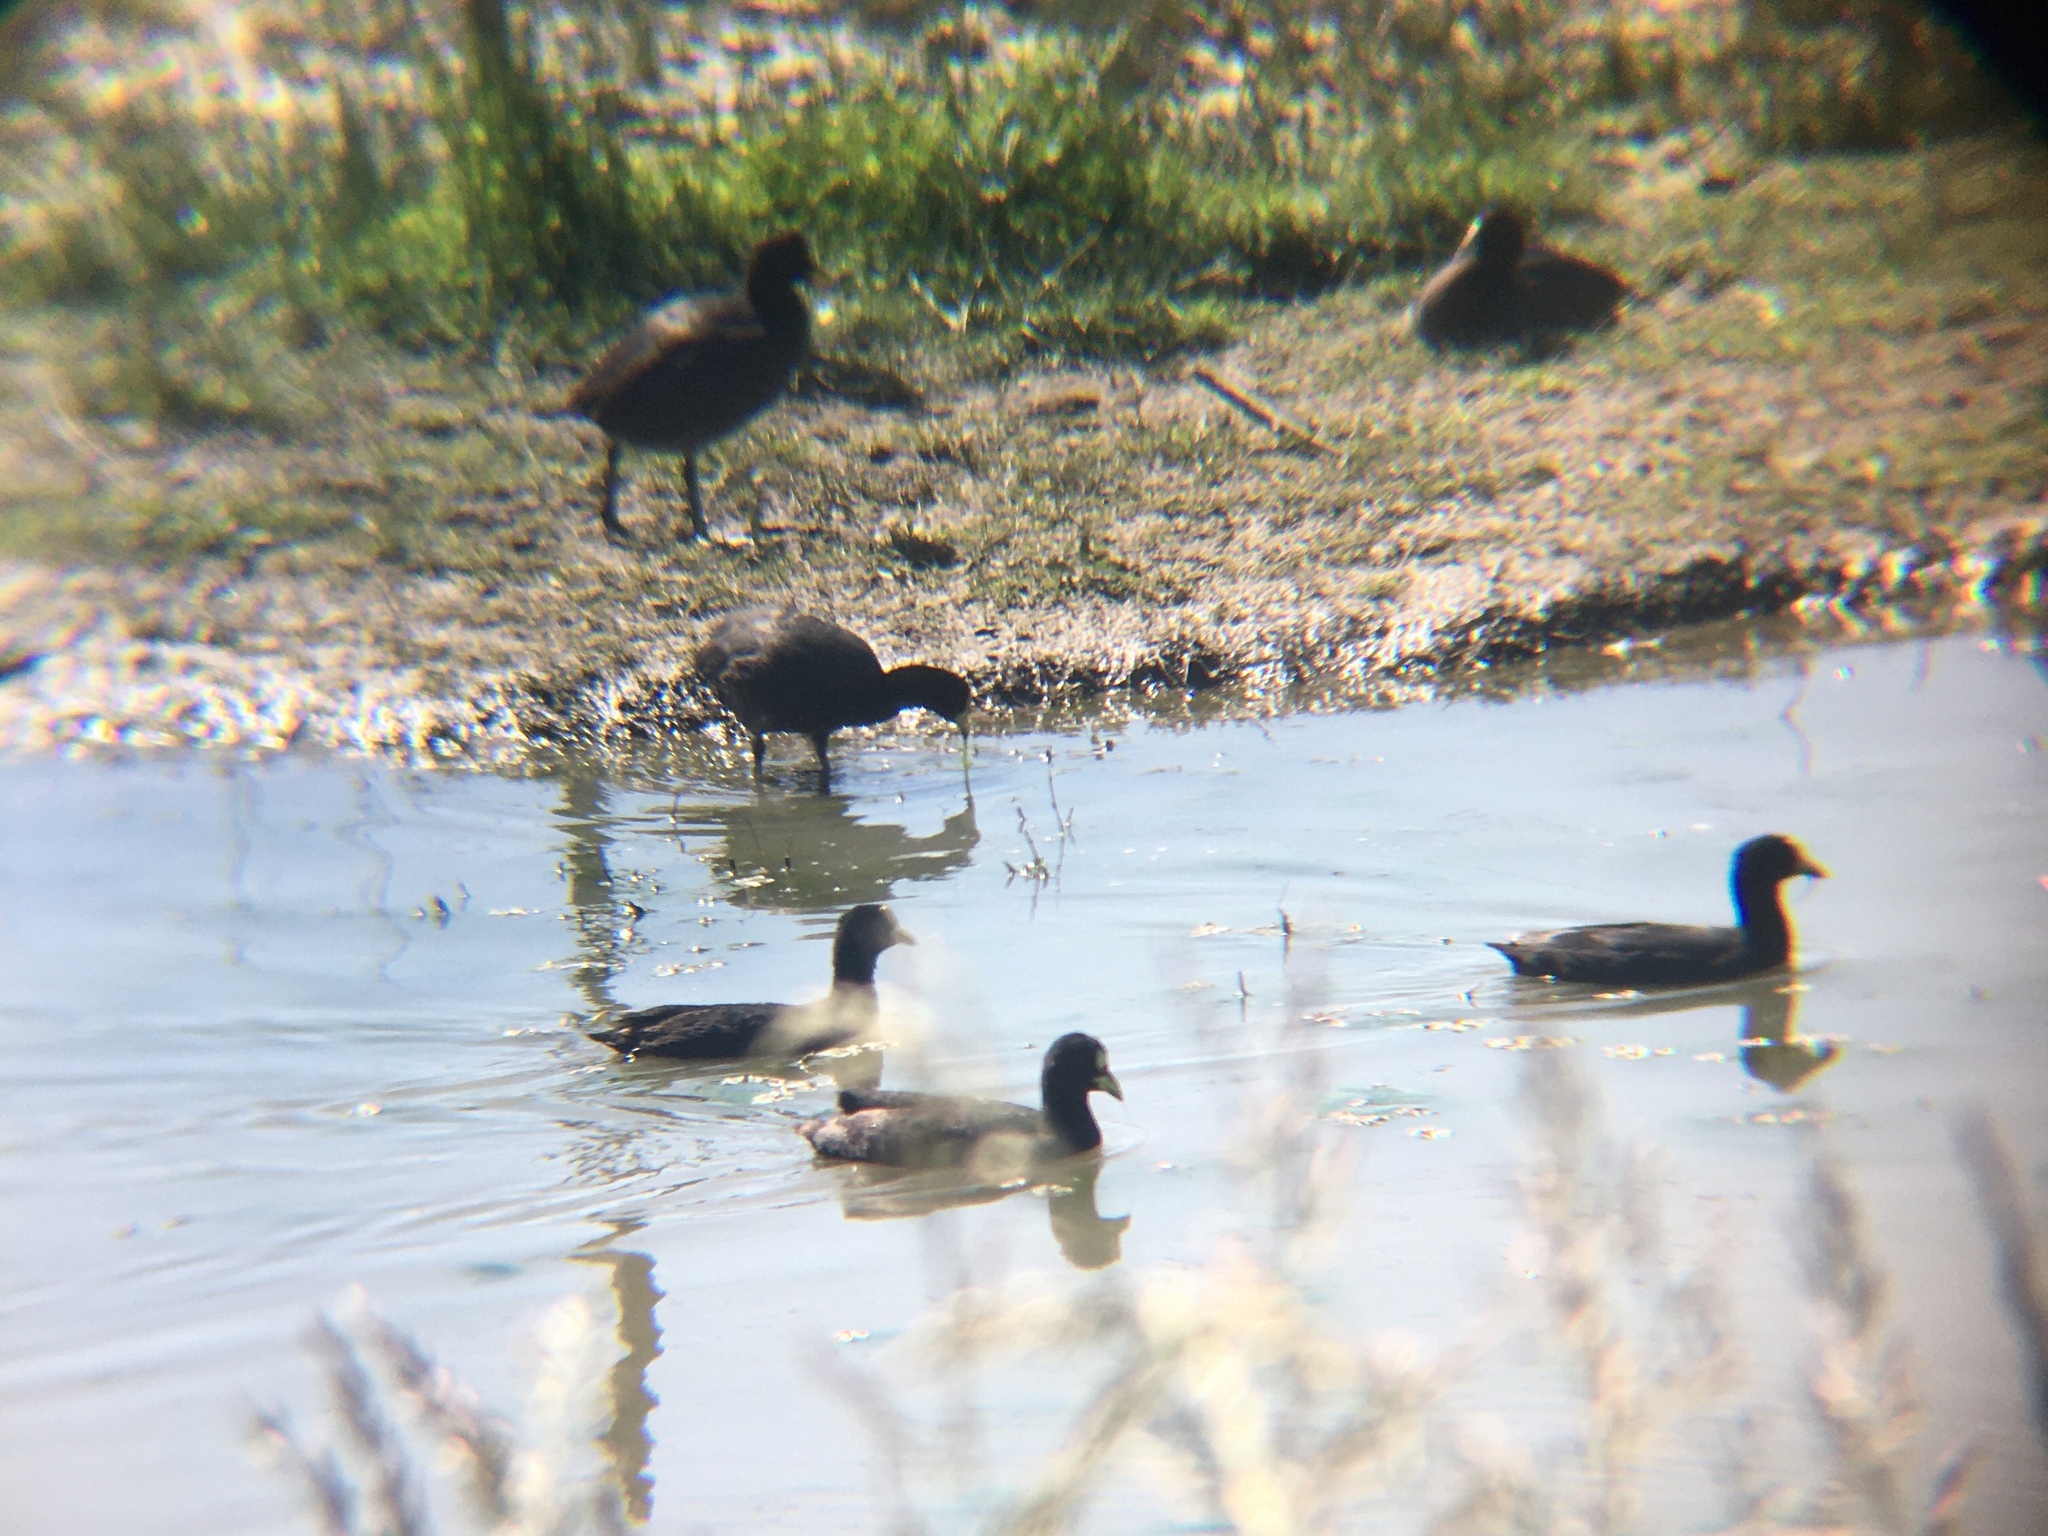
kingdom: Animalia
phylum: Chordata
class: Aves
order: Gruiformes
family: Rallidae
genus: Fulica
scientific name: Fulica armillata
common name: Red-gartered coot
